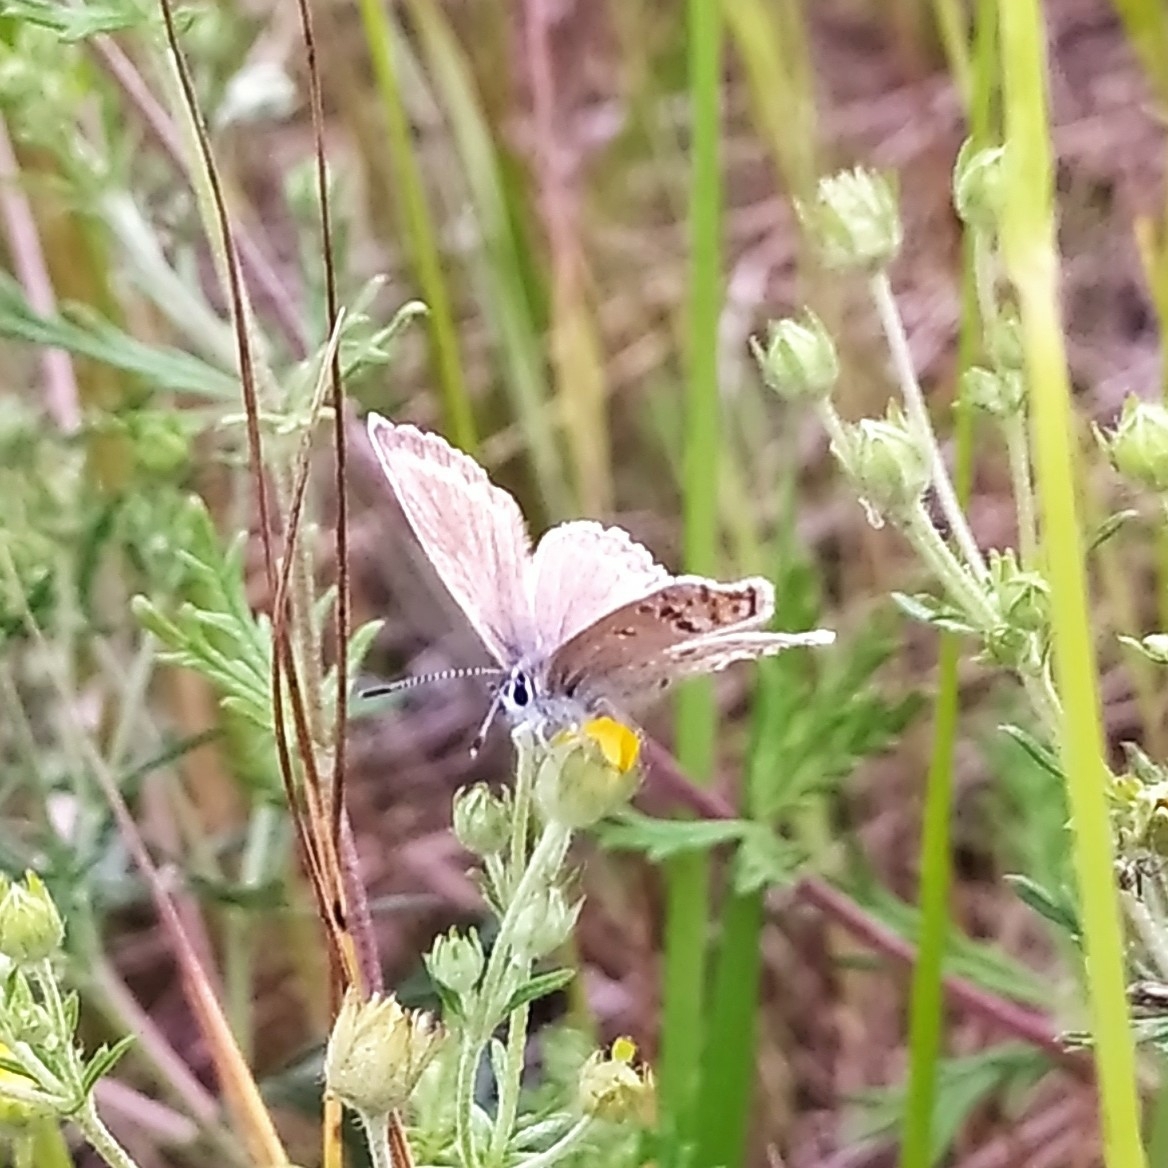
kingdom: Animalia
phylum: Arthropoda
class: Insecta
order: Lepidoptera
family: Lycaenidae
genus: Plebejus
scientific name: Plebejus argus
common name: Silver-studded blue
